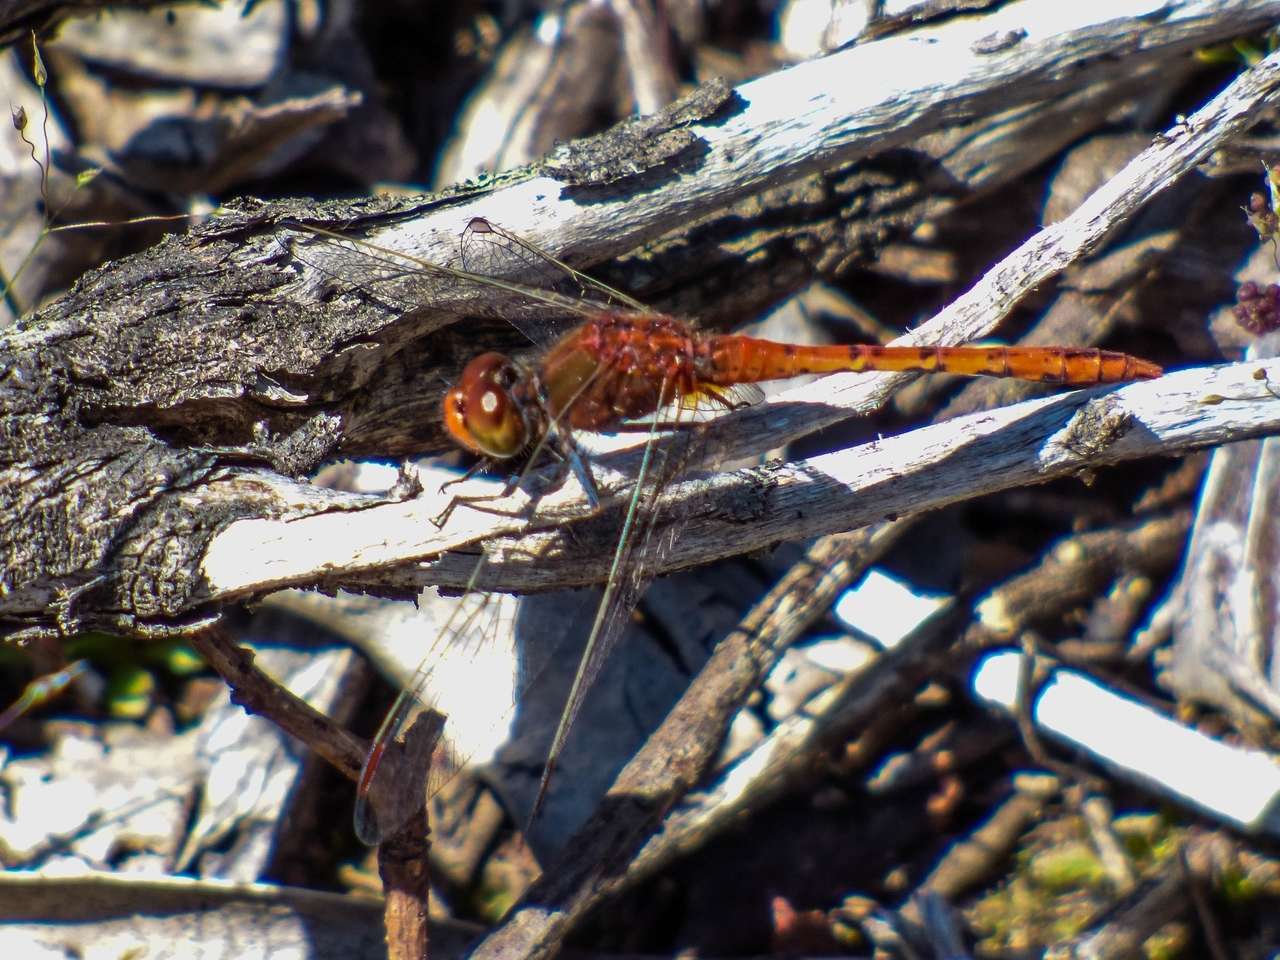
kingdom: Animalia
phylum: Arthropoda
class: Insecta
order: Odonata
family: Libellulidae
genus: Diplacodes
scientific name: Diplacodes bipunctata
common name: Red percher dragonfly
